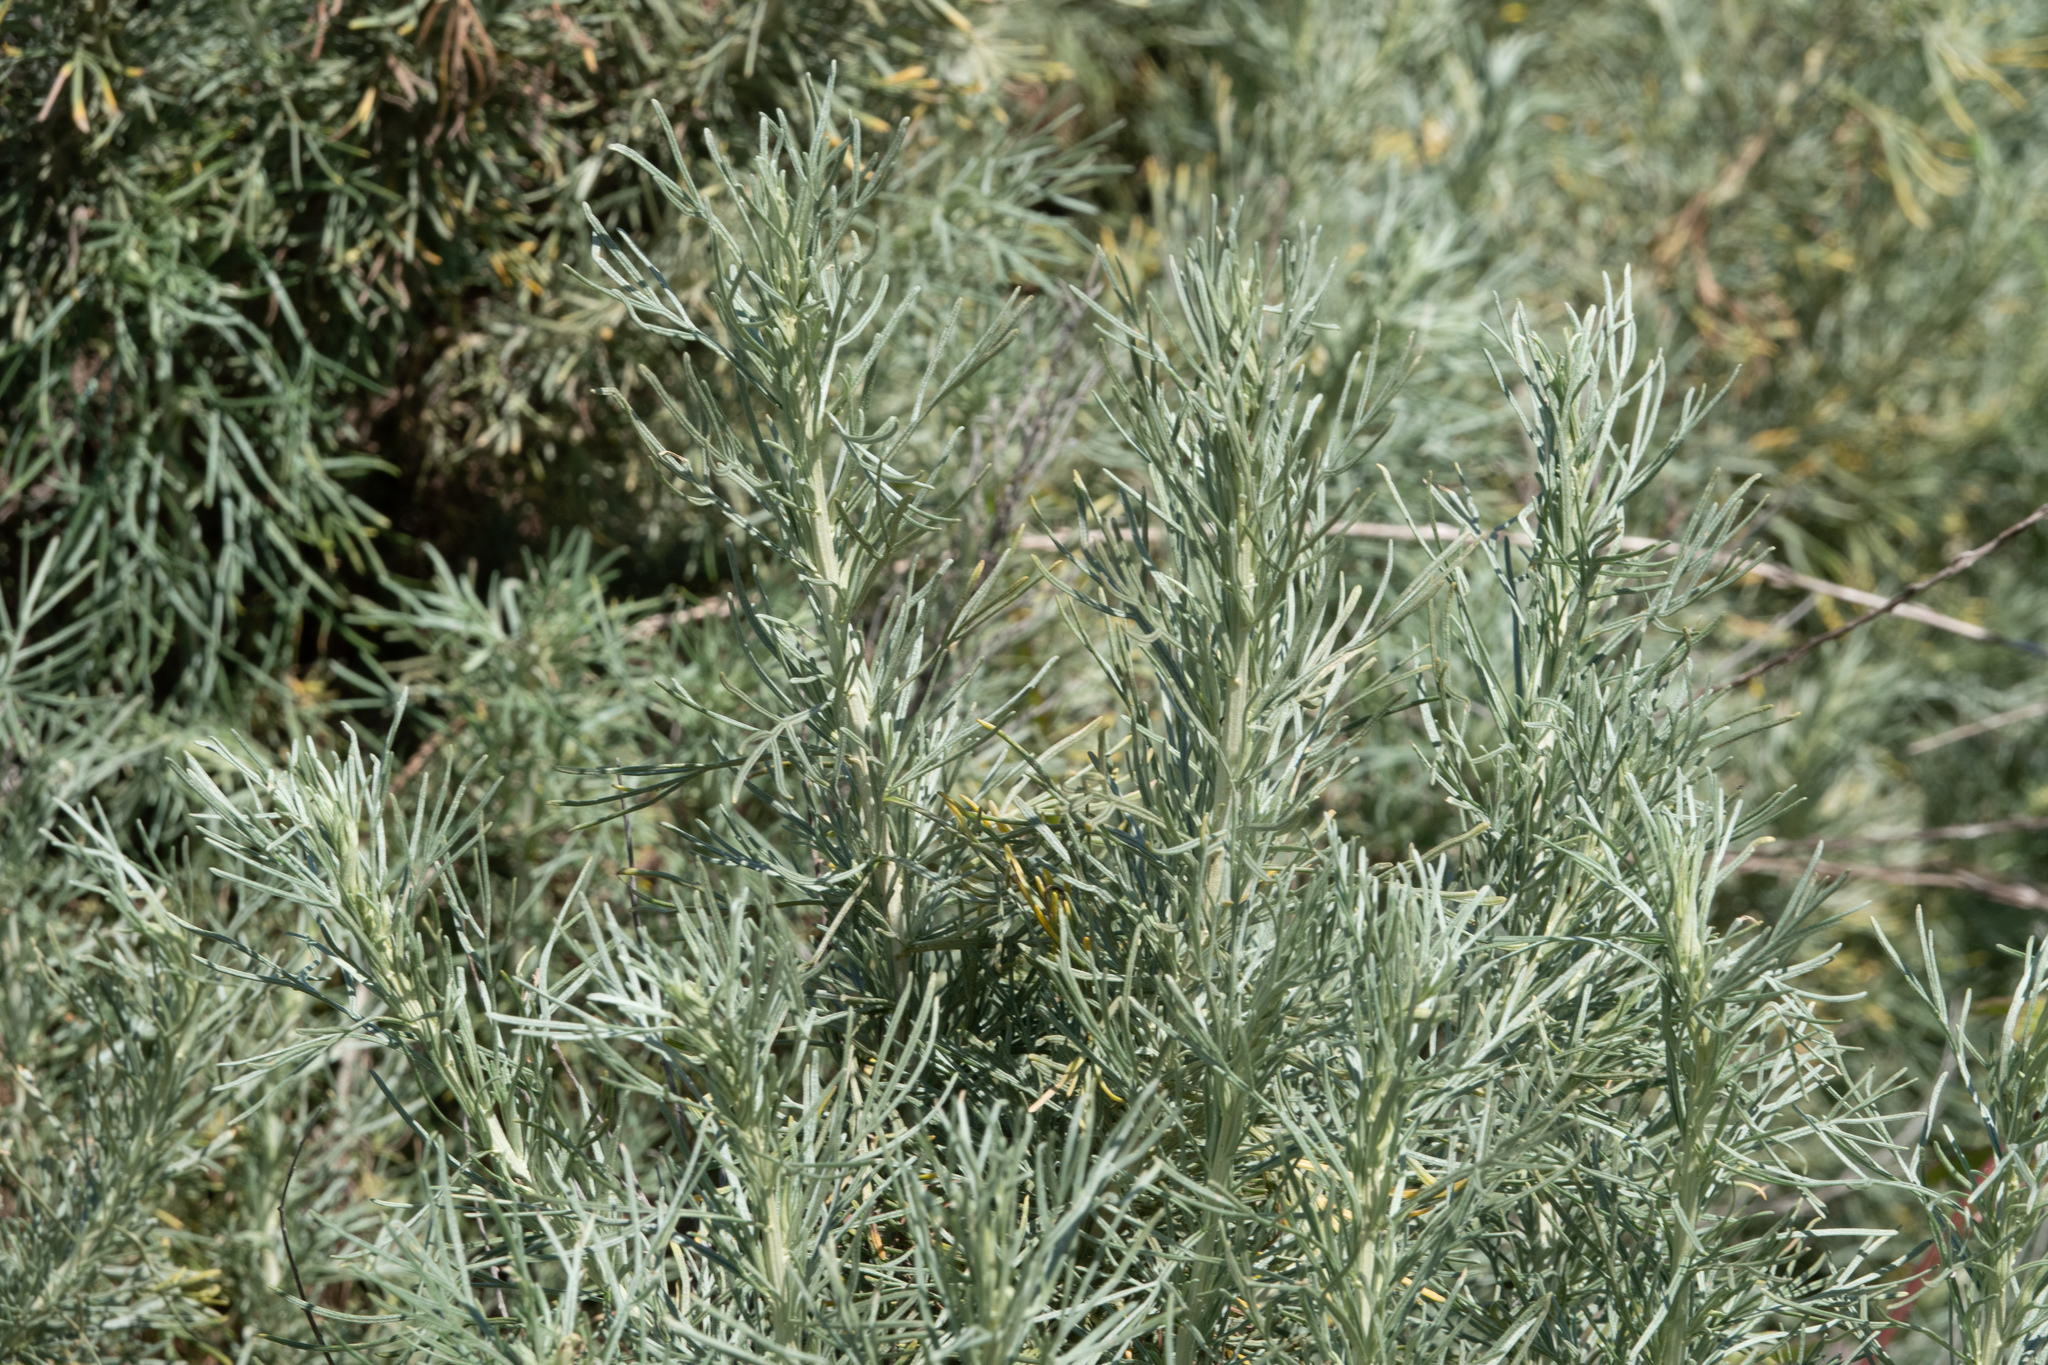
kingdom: Plantae
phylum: Tracheophyta
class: Magnoliopsida
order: Asterales
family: Asteraceae
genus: Artemisia
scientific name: Artemisia californica
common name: California sagebrush
